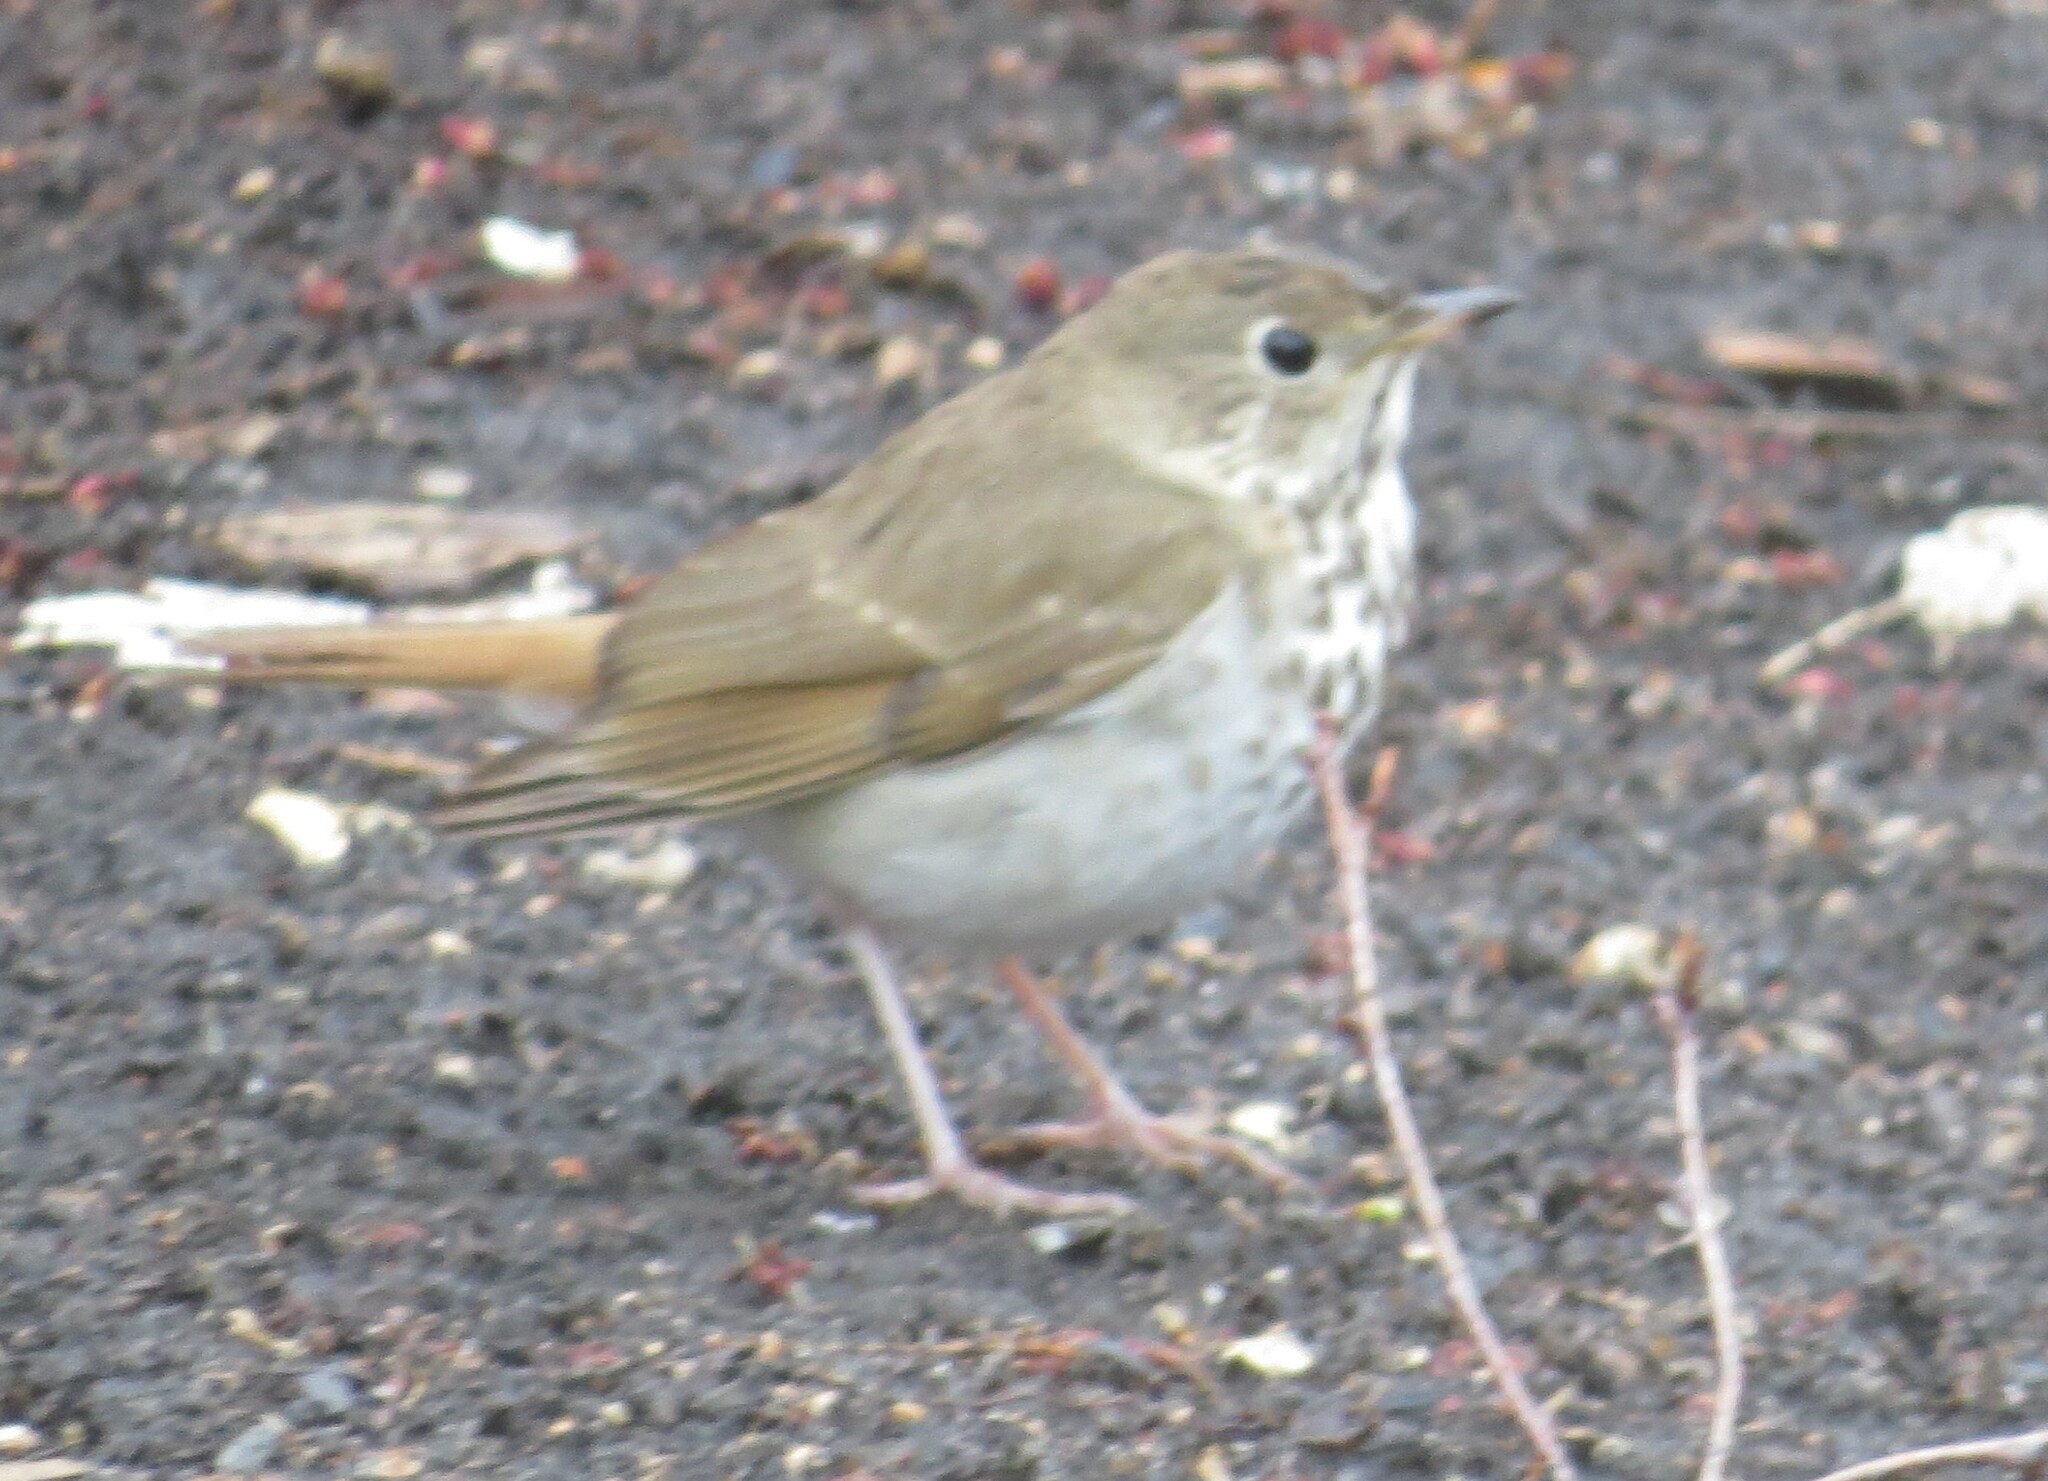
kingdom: Animalia
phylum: Chordata
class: Aves
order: Passeriformes
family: Turdidae
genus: Catharus
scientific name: Catharus guttatus
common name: Hermit thrush
